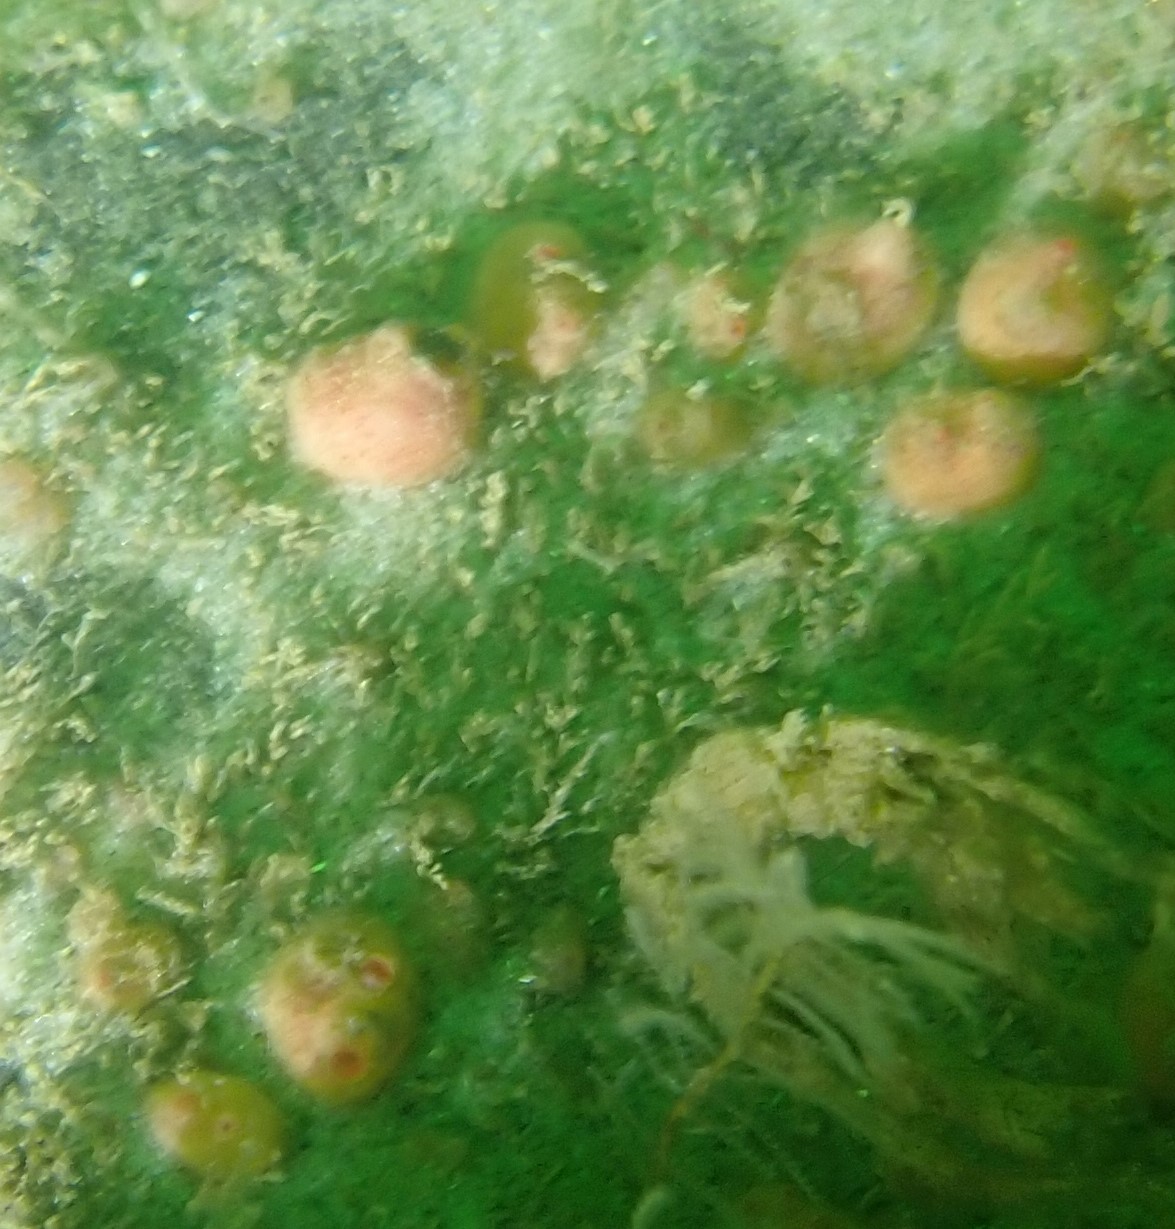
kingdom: Animalia
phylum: Chordata
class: Ascidiacea
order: Stolidobranchia
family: Styelidae
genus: Dendrodoa
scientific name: Dendrodoa grossularia
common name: Baked bean ascidian
